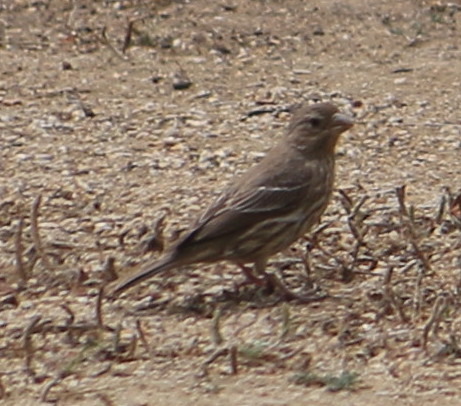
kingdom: Animalia
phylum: Chordata
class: Aves
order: Passeriformes
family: Fringillidae
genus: Haemorhous
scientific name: Haemorhous mexicanus
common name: House finch
